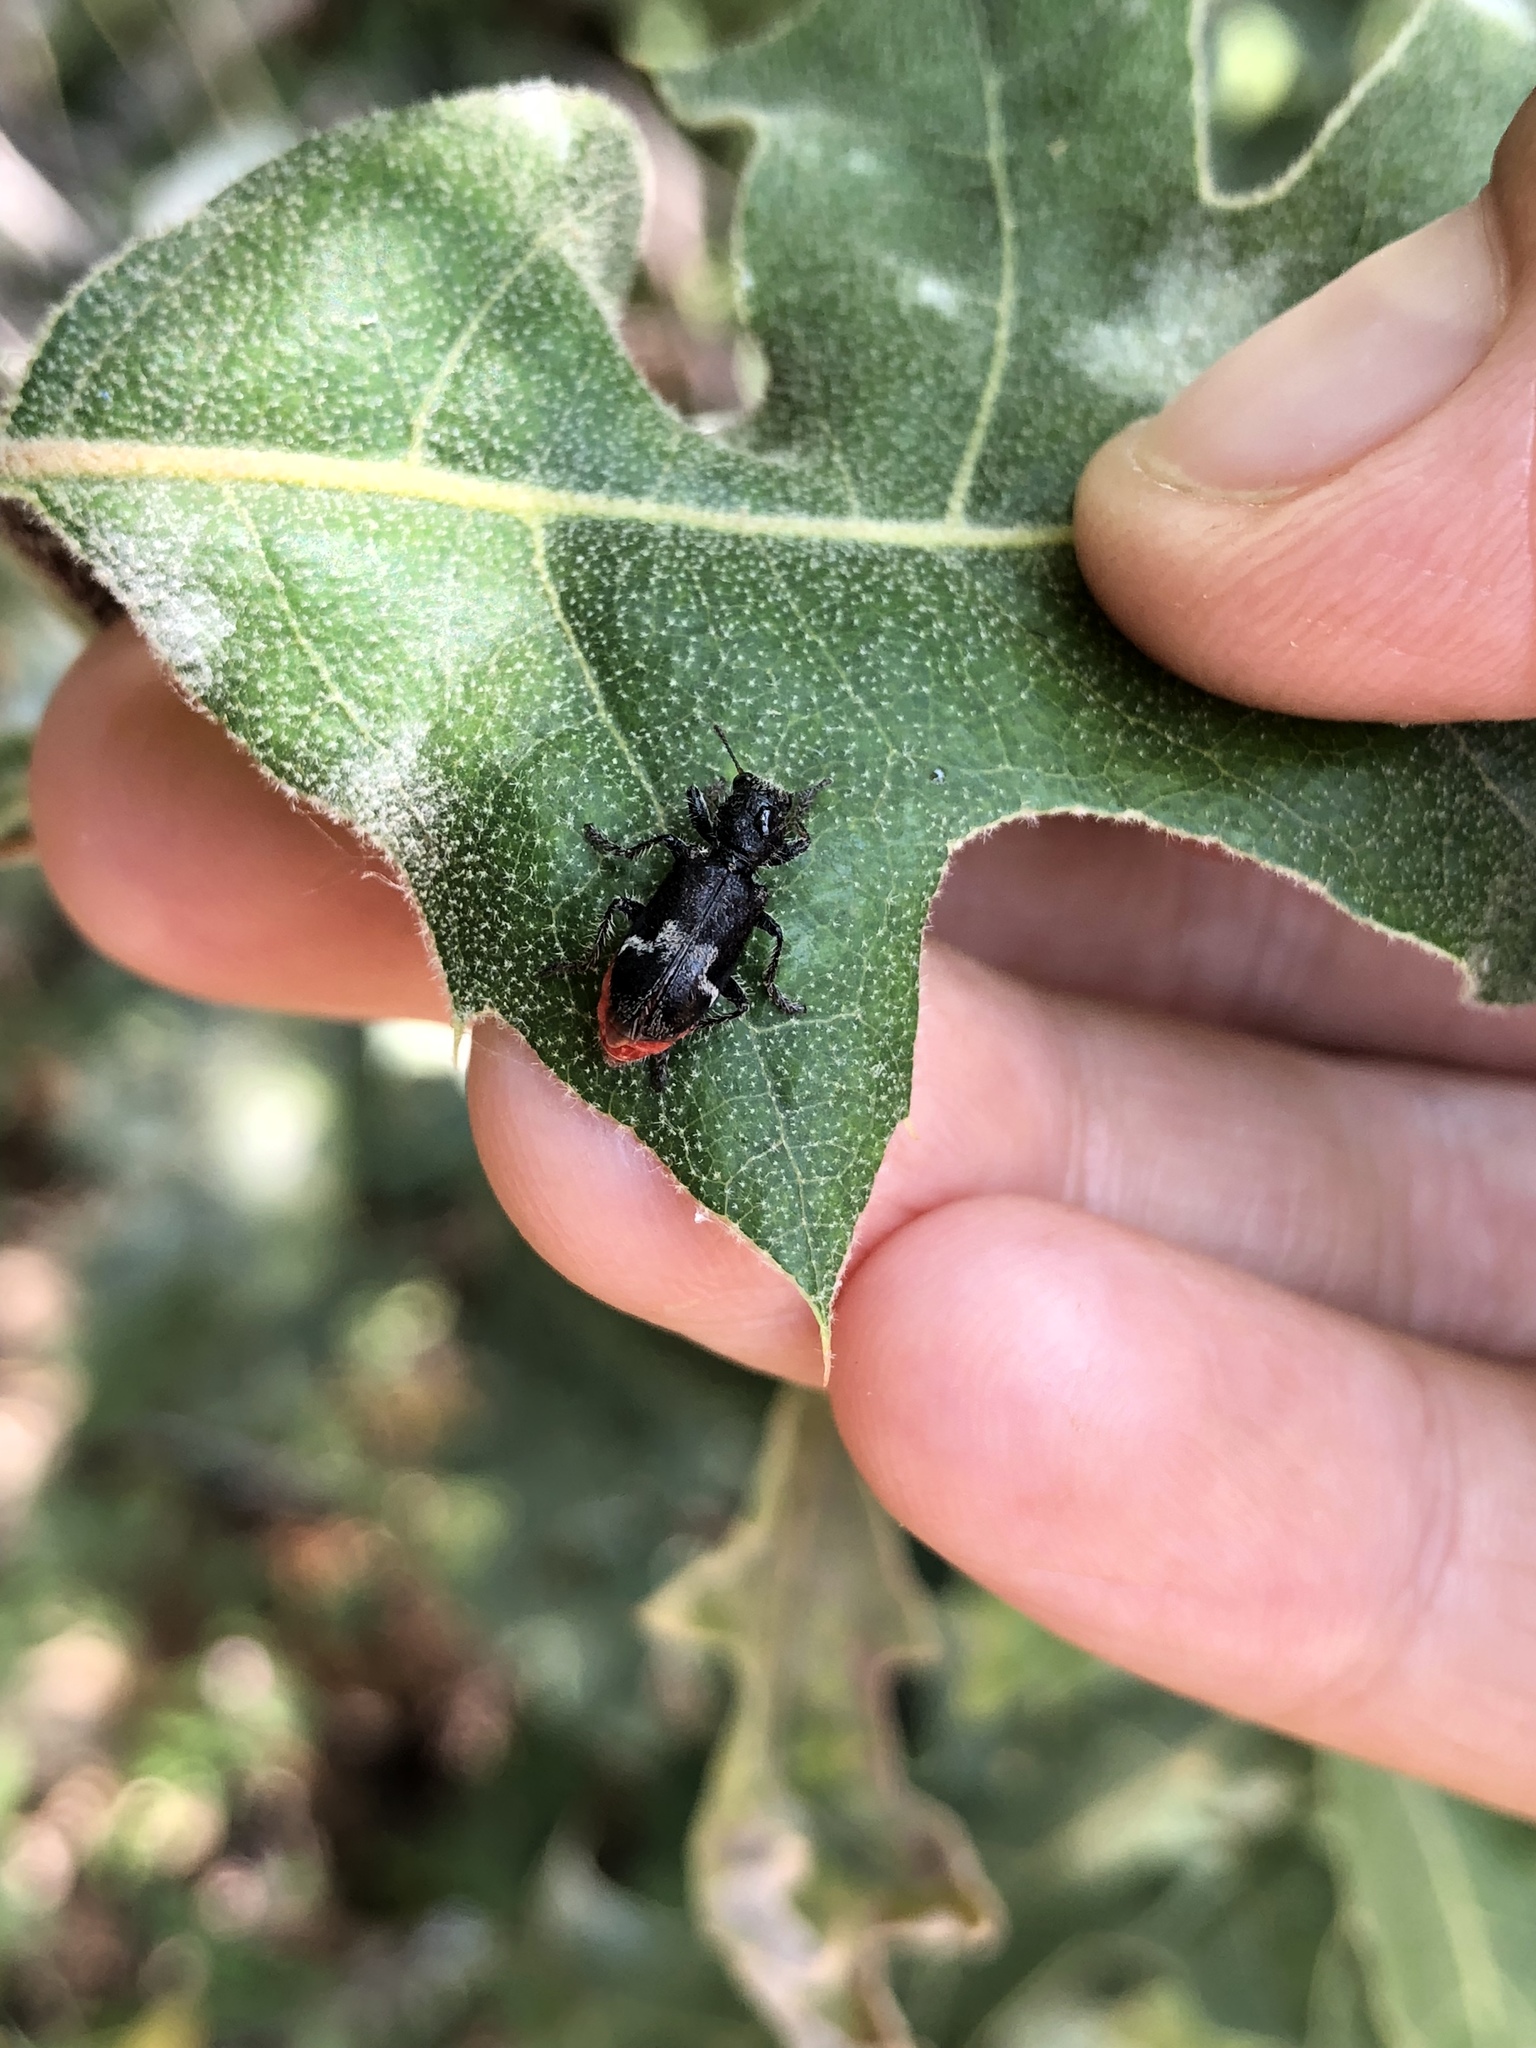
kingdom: Animalia
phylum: Arthropoda
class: Insecta
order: Coleoptera
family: Cleridae
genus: Enoclerus
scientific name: Enoclerus moestus
